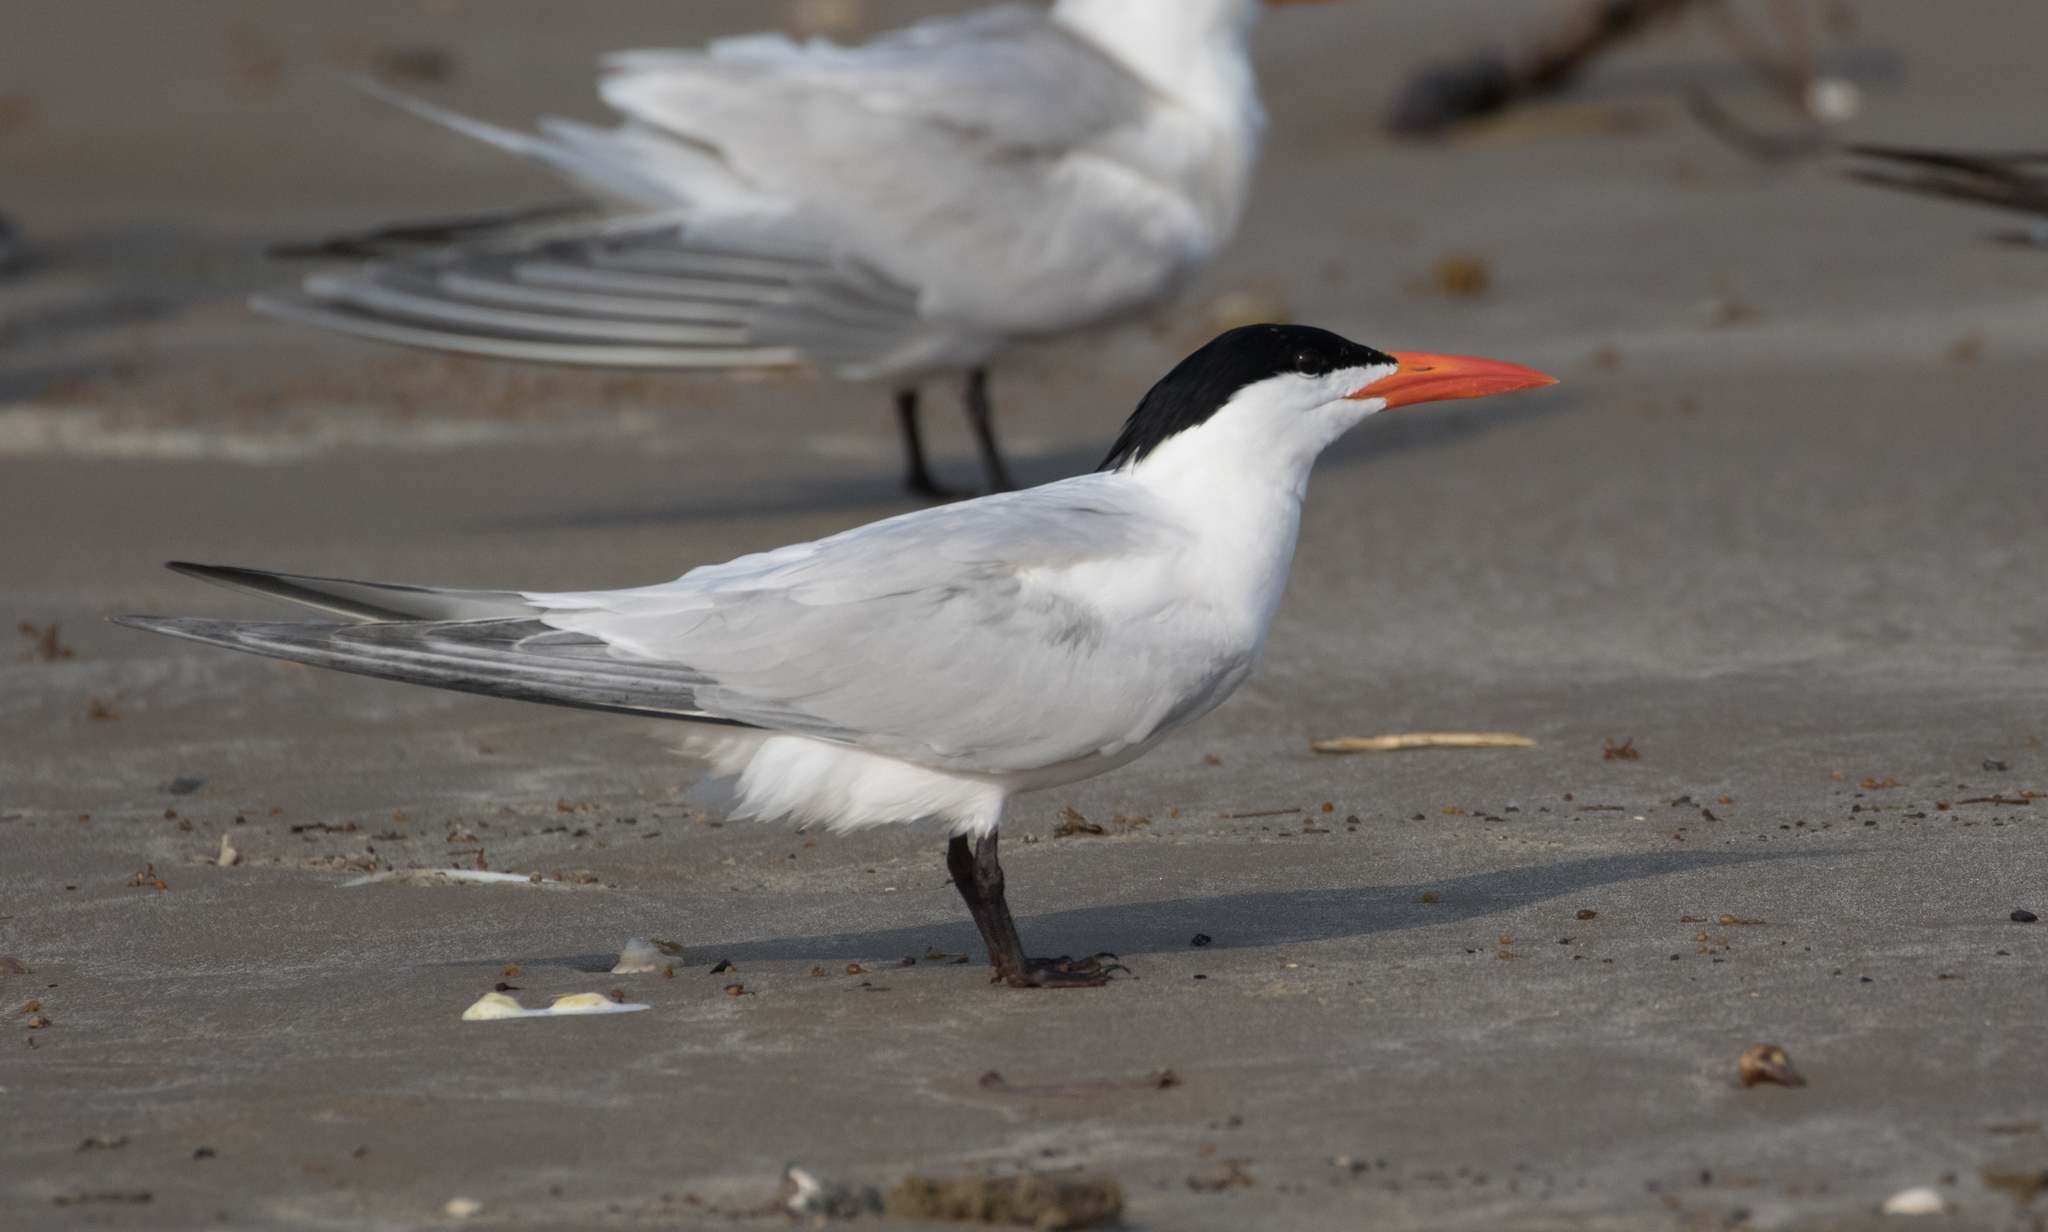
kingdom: Animalia
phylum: Chordata
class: Aves
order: Charadriiformes
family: Laridae
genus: Thalasseus
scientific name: Thalasseus maximus
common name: Royal tern
